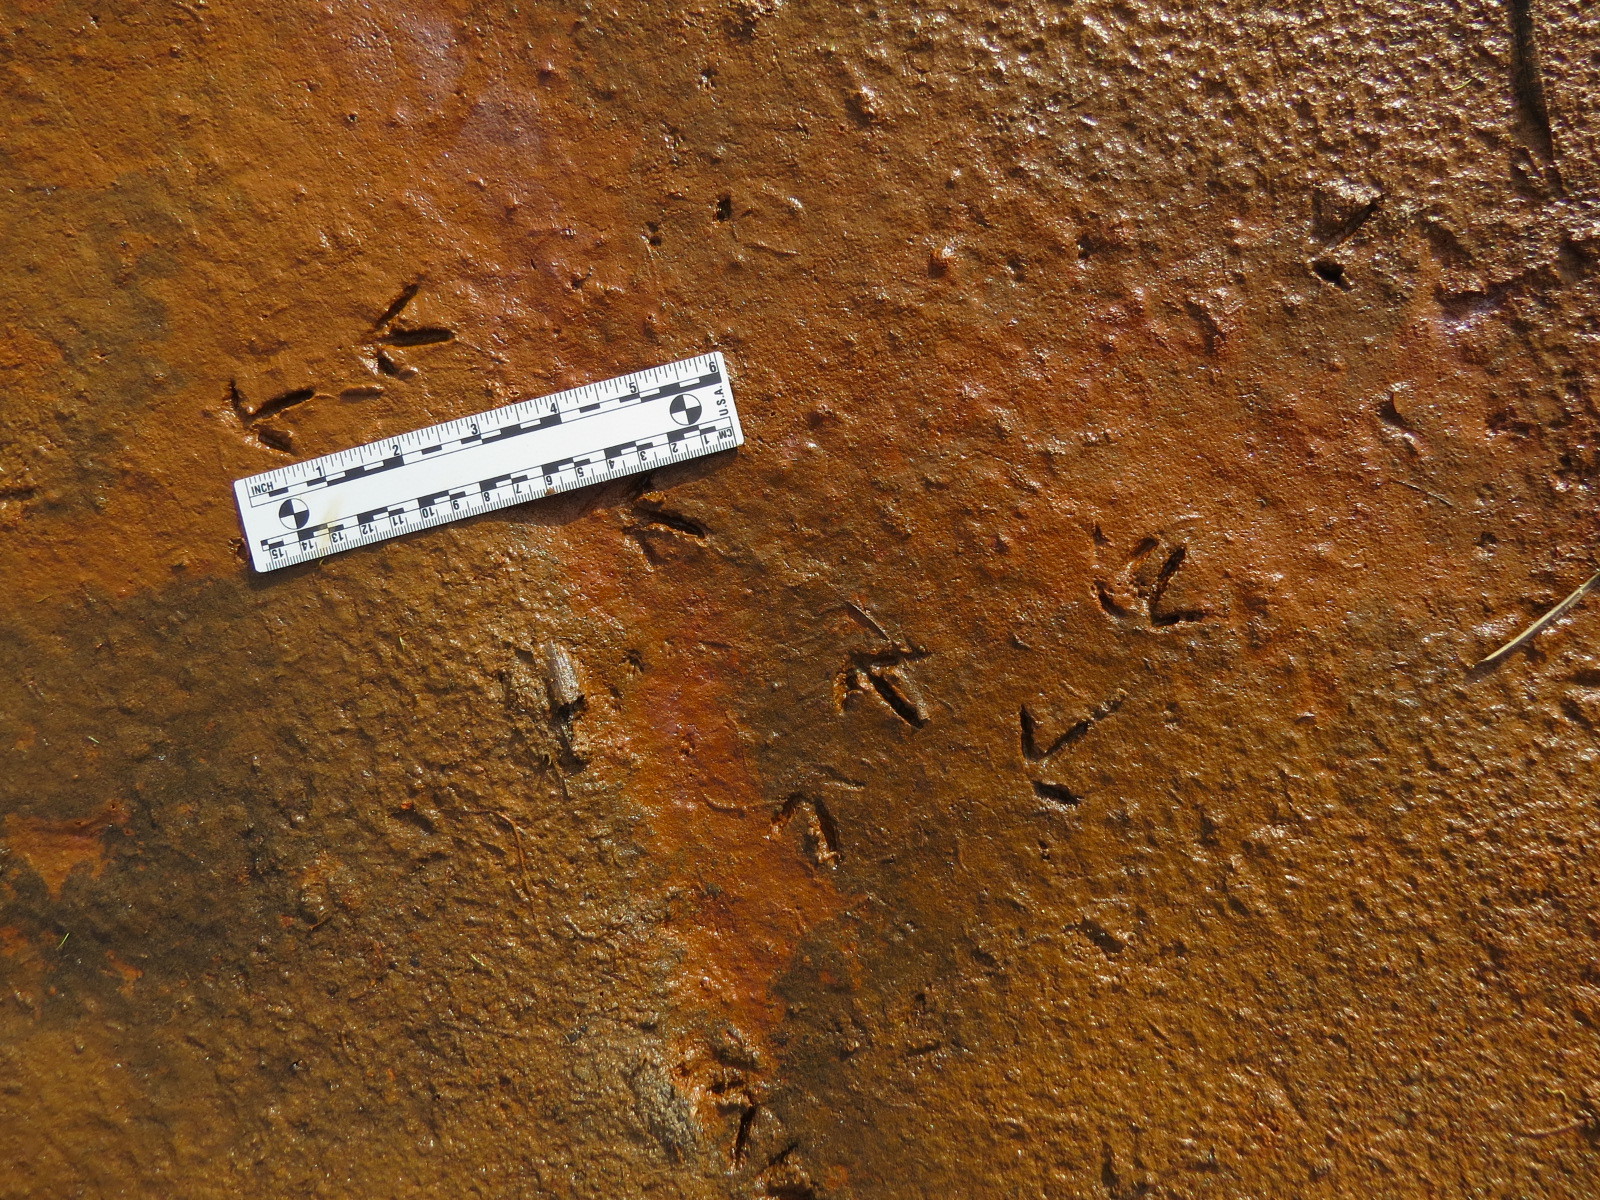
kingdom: Animalia
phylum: Chordata
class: Aves
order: Charadriiformes
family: Charadriidae
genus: Charadrius
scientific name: Charadrius vociferus
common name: Killdeer
